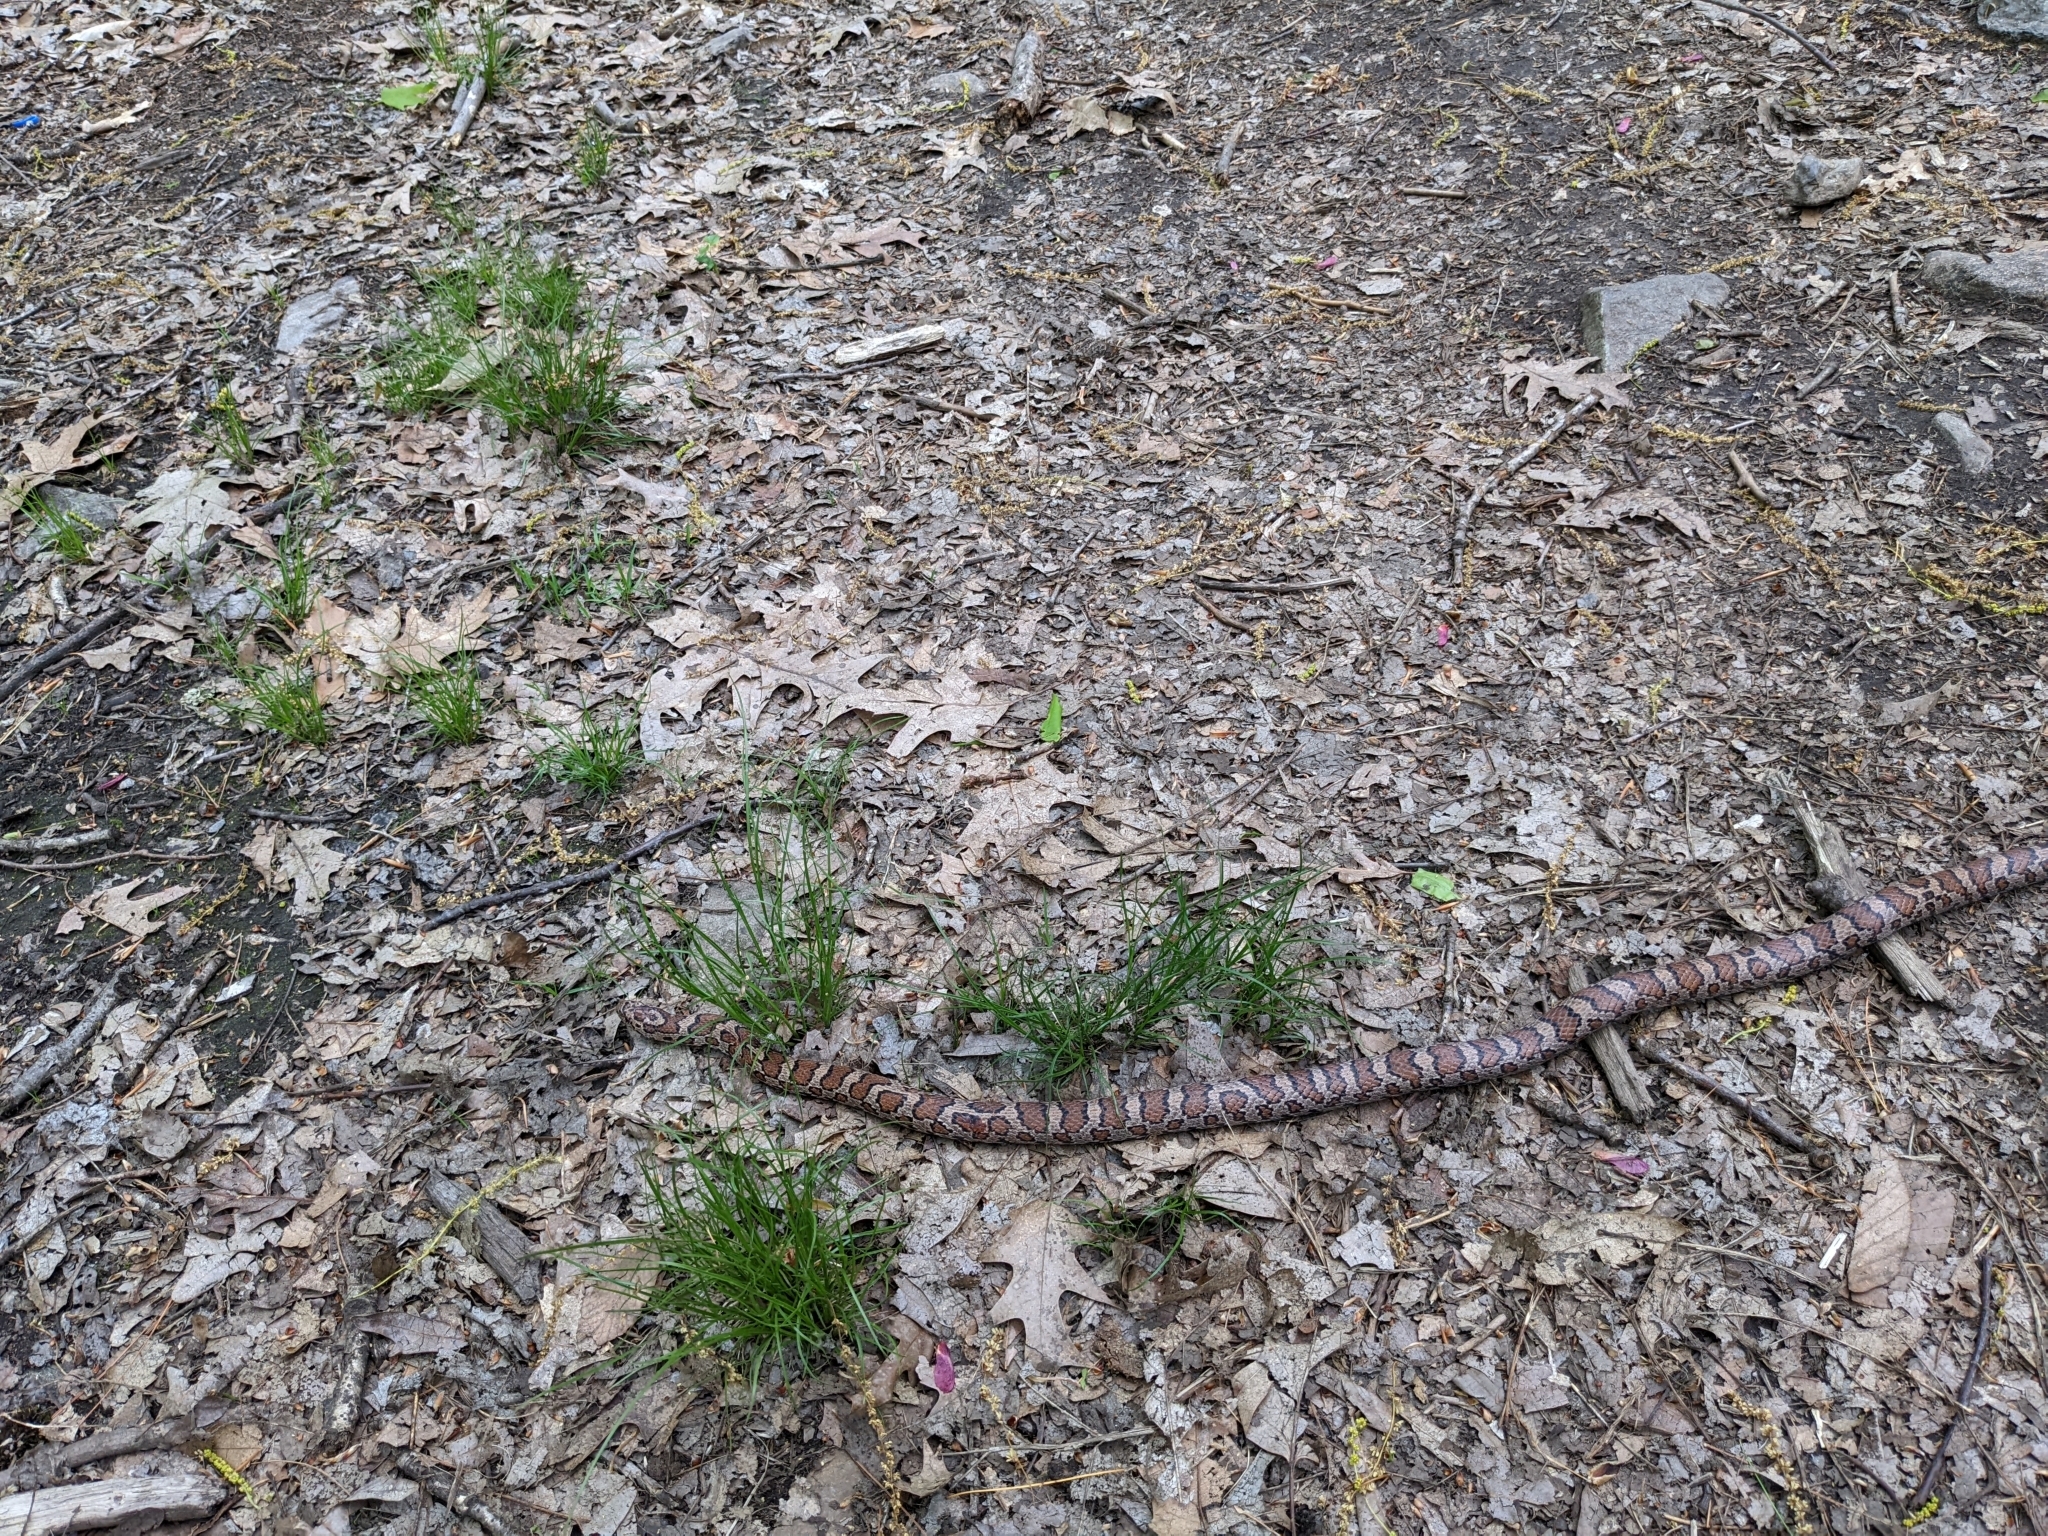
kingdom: Animalia
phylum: Chordata
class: Squamata
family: Colubridae
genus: Lampropeltis
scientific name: Lampropeltis triangulum
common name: Eastern milksnake
